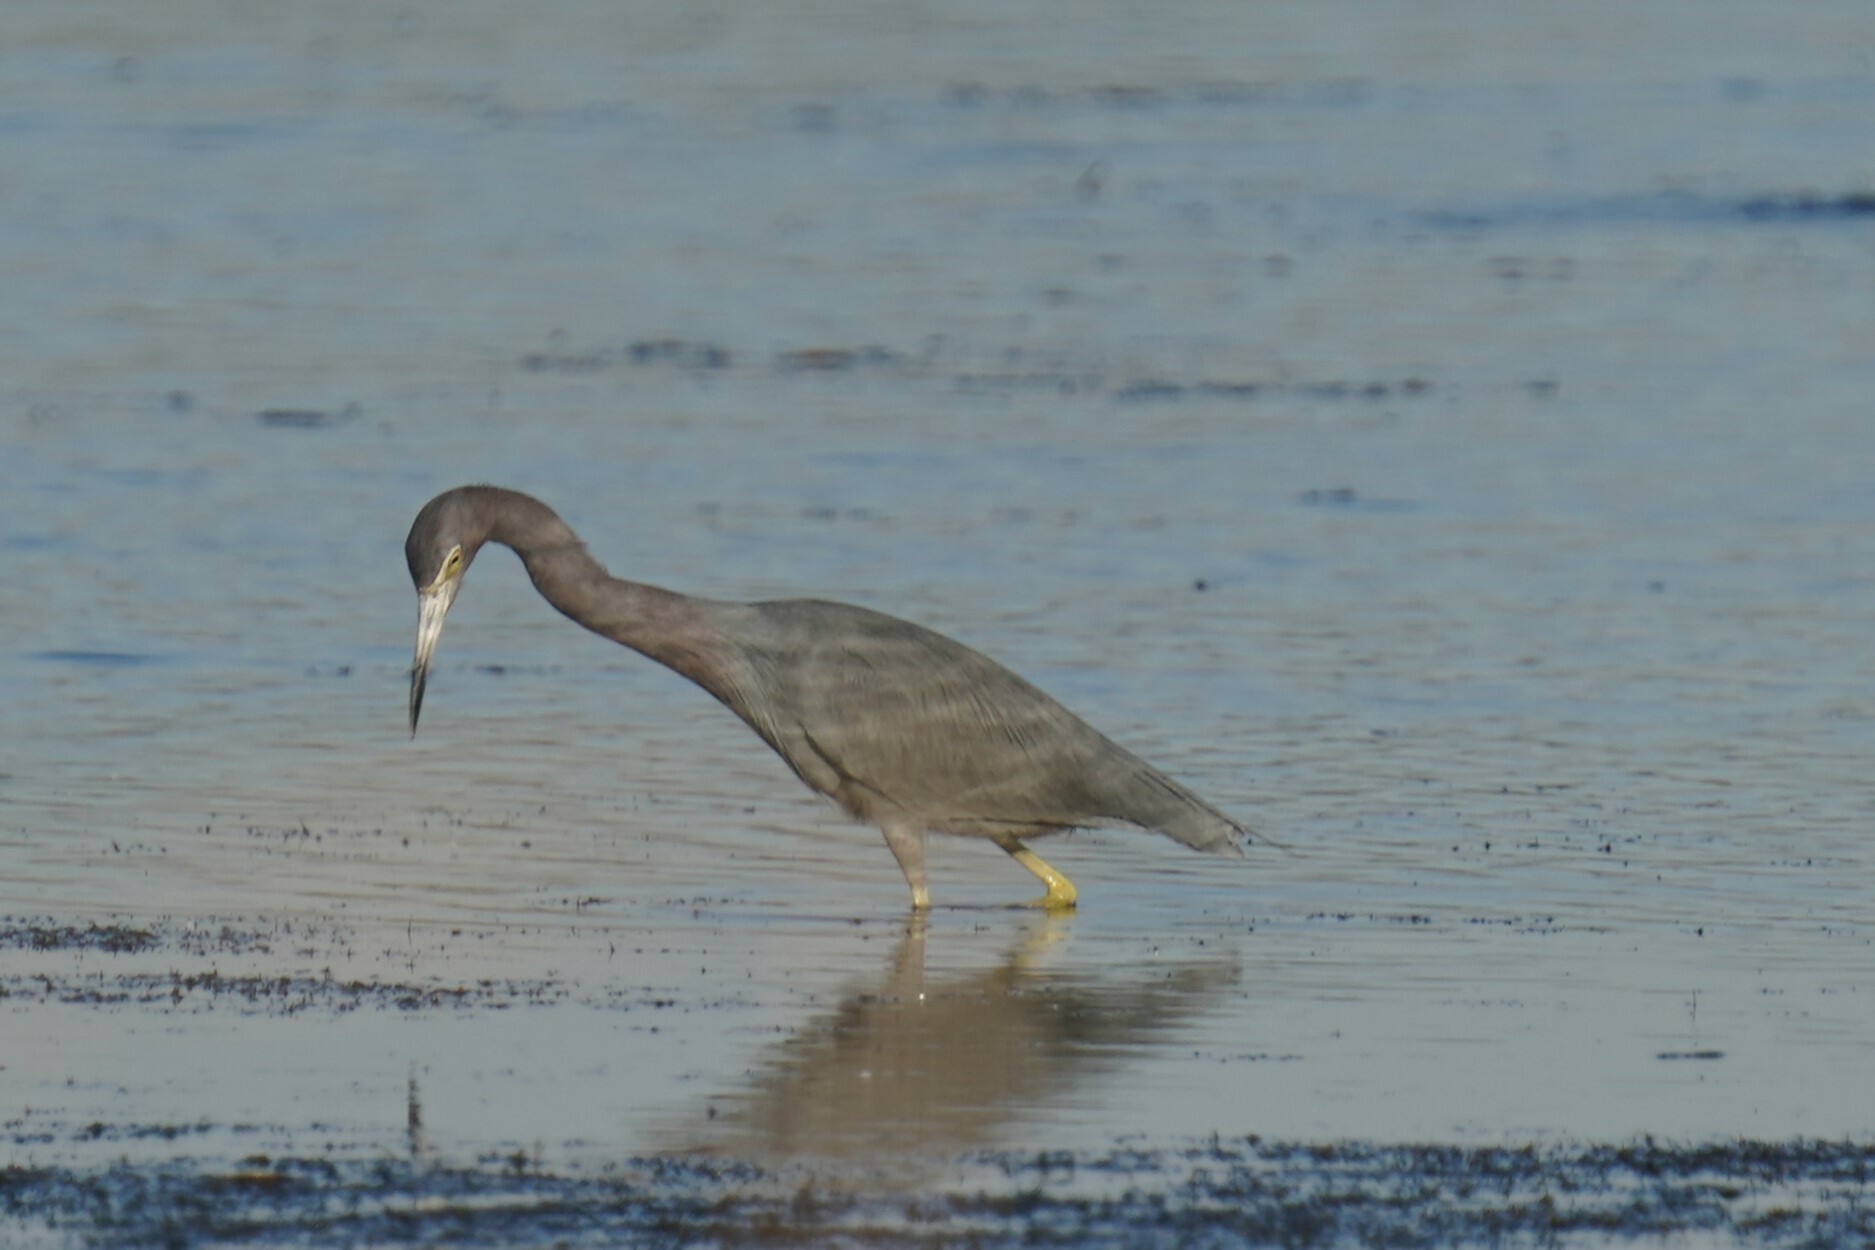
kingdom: Animalia
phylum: Chordata
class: Aves
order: Pelecaniformes
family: Ardeidae
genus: Egretta
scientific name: Egretta caerulea
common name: Little blue heron
